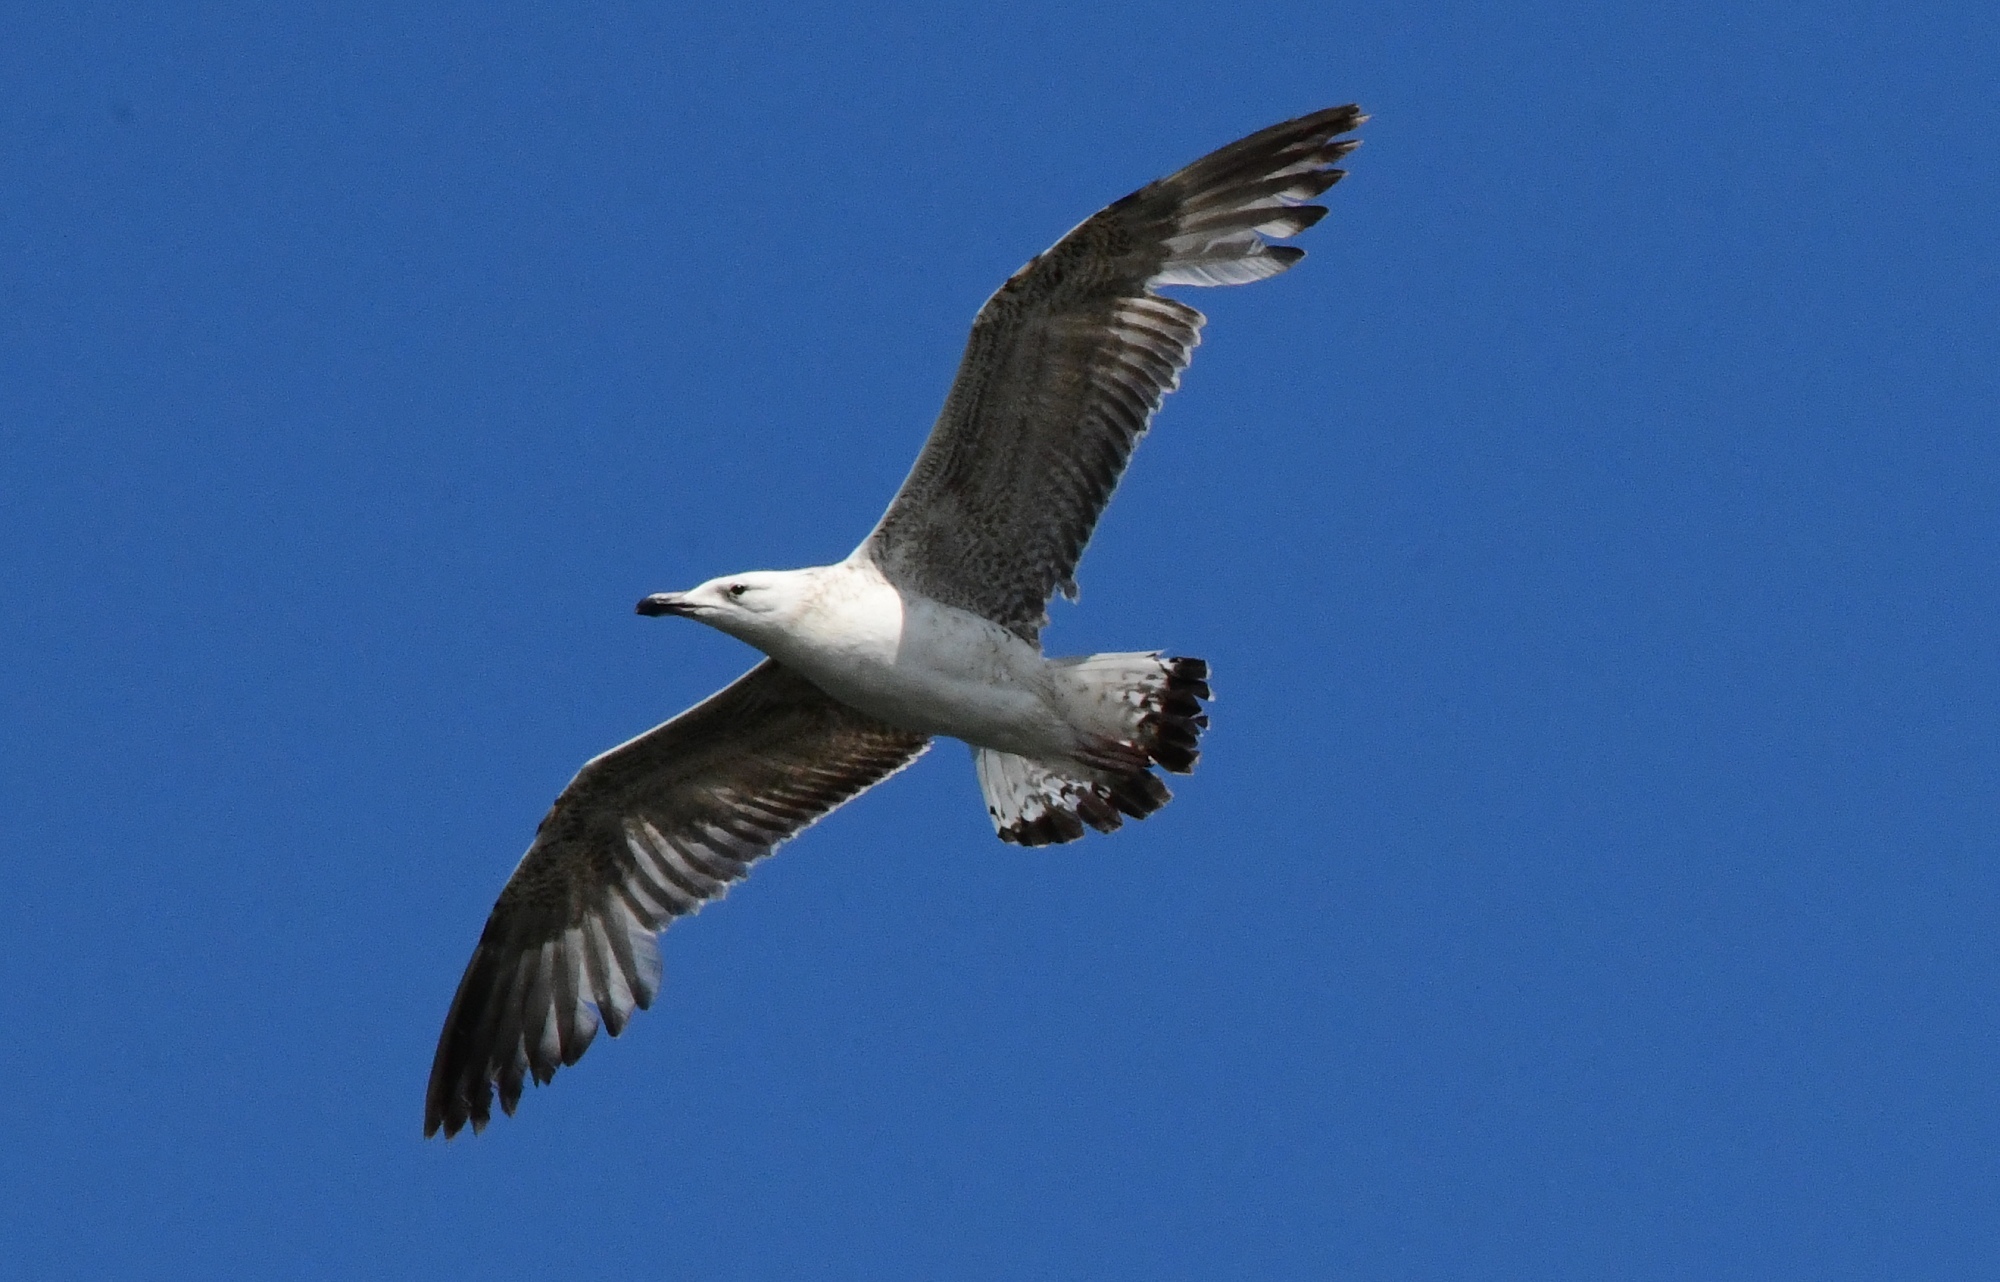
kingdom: Animalia
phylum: Chordata
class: Aves
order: Charadriiformes
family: Laridae
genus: Larus
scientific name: Larus michahellis
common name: Yellow-legged gull
